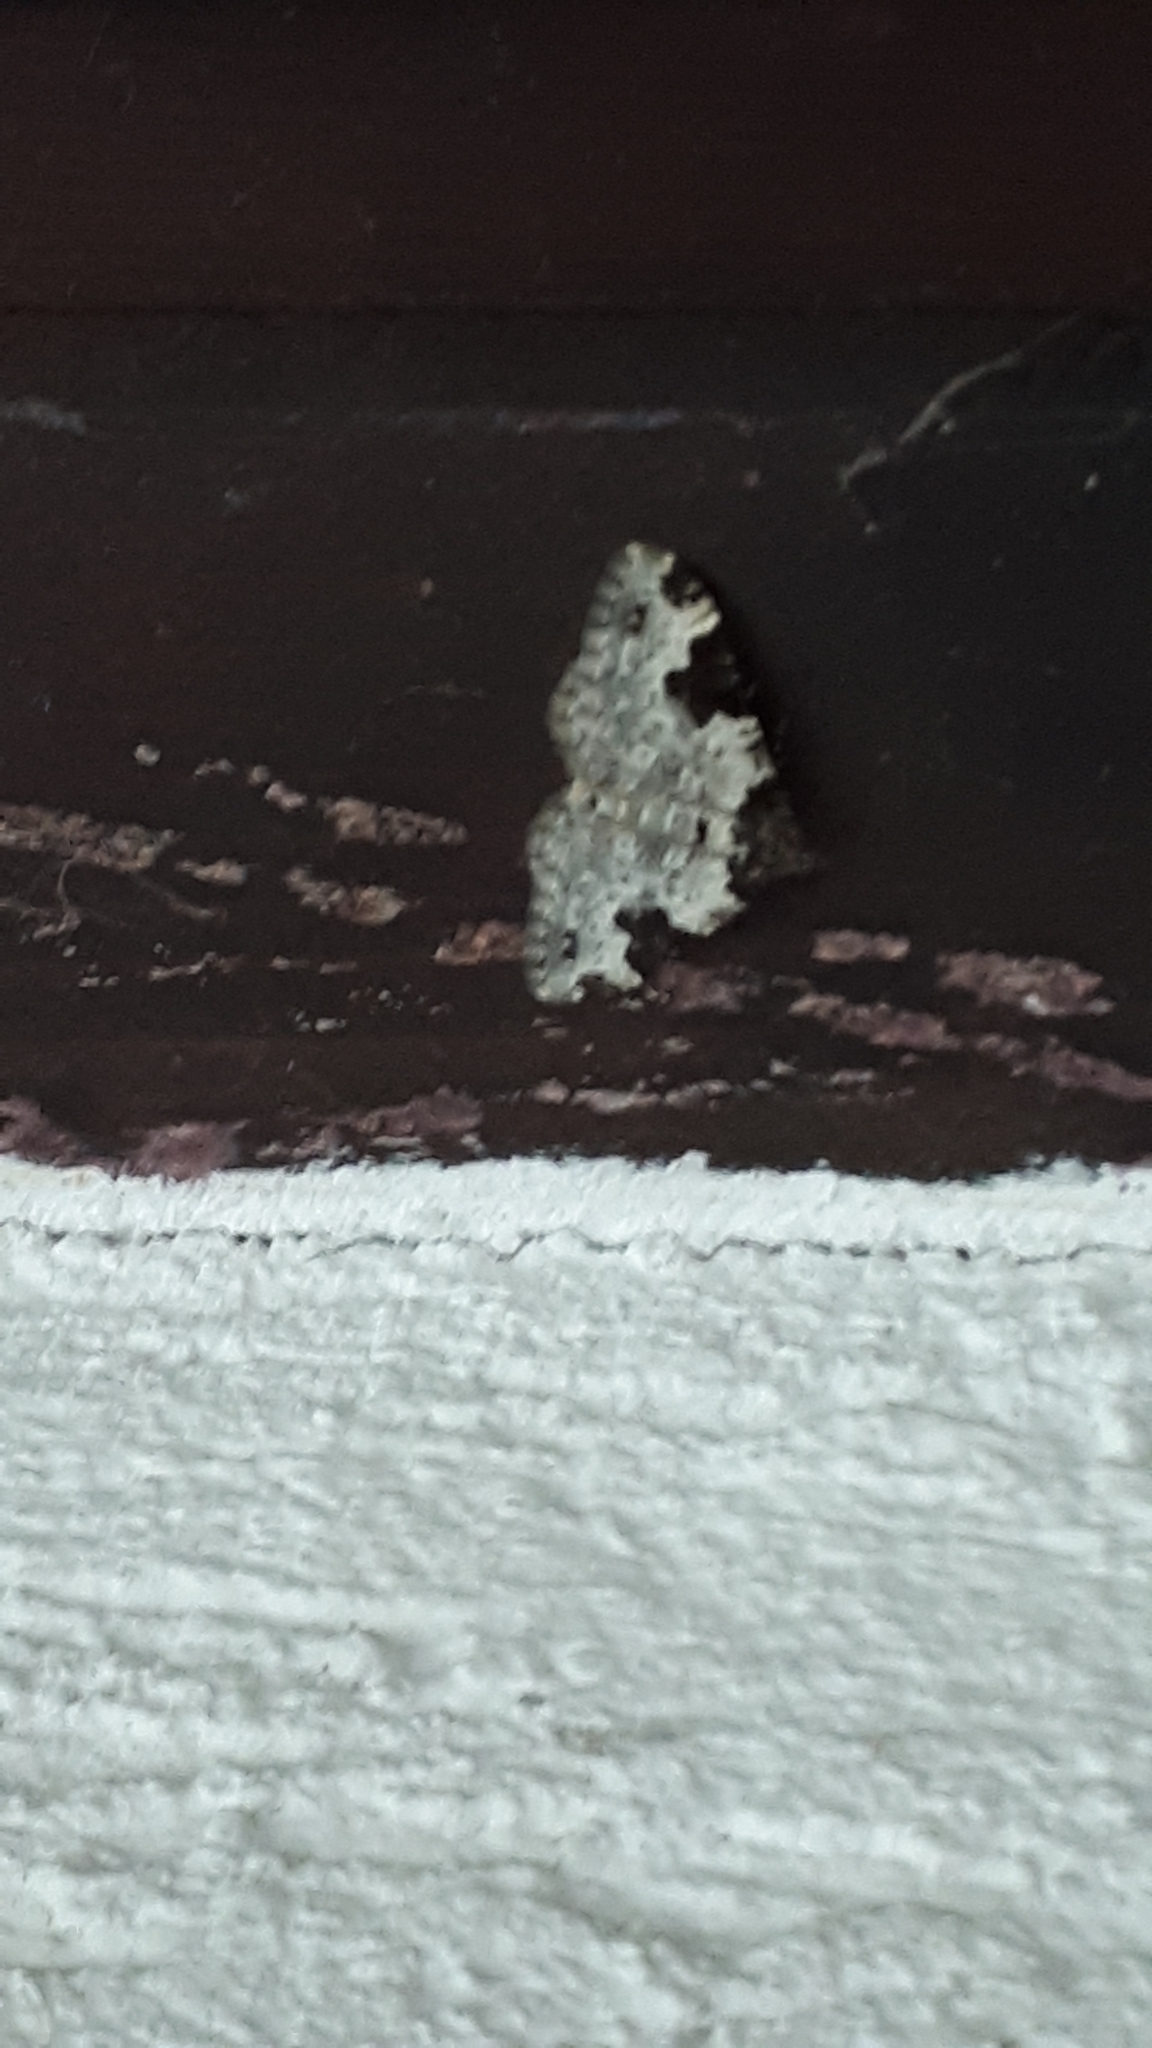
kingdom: Animalia
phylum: Arthropoda
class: Insecta
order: Lepidoptera
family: Geometridae
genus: Xanthorhoe
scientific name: Xanthorhoe fluctuata
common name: Garden carpet
